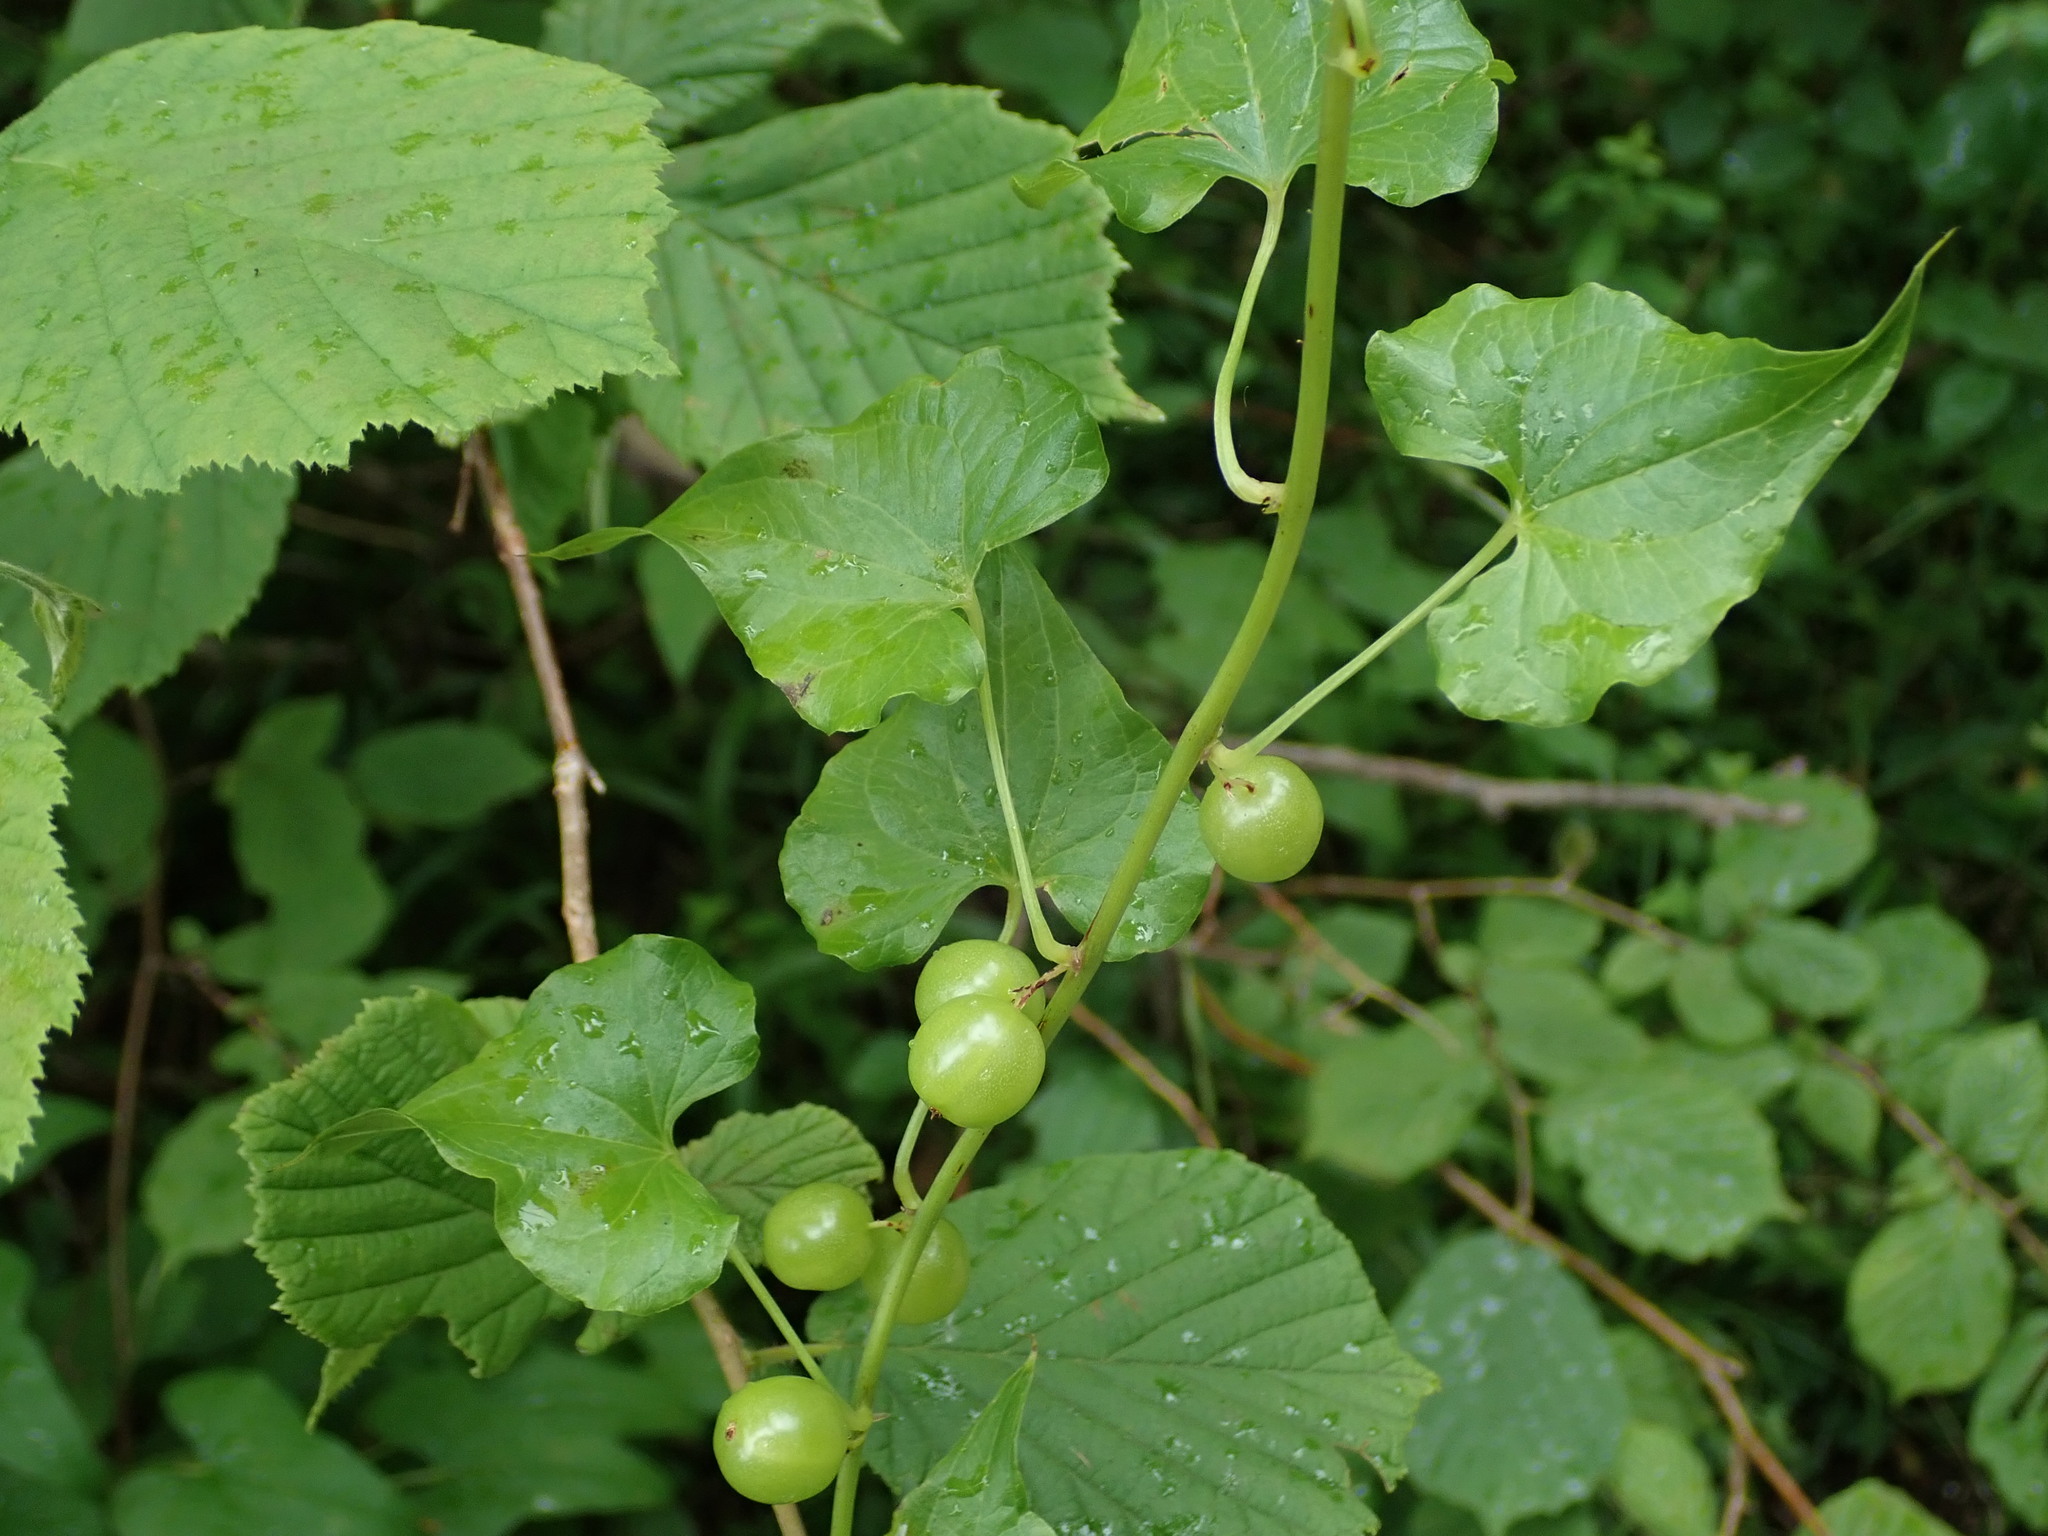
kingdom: Plantae
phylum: Tracheophyta
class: Liliopsida
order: Dioscoreales
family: Dioscoreaceae
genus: Dioscorea
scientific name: Dioscorea communis
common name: Black-bindweed
